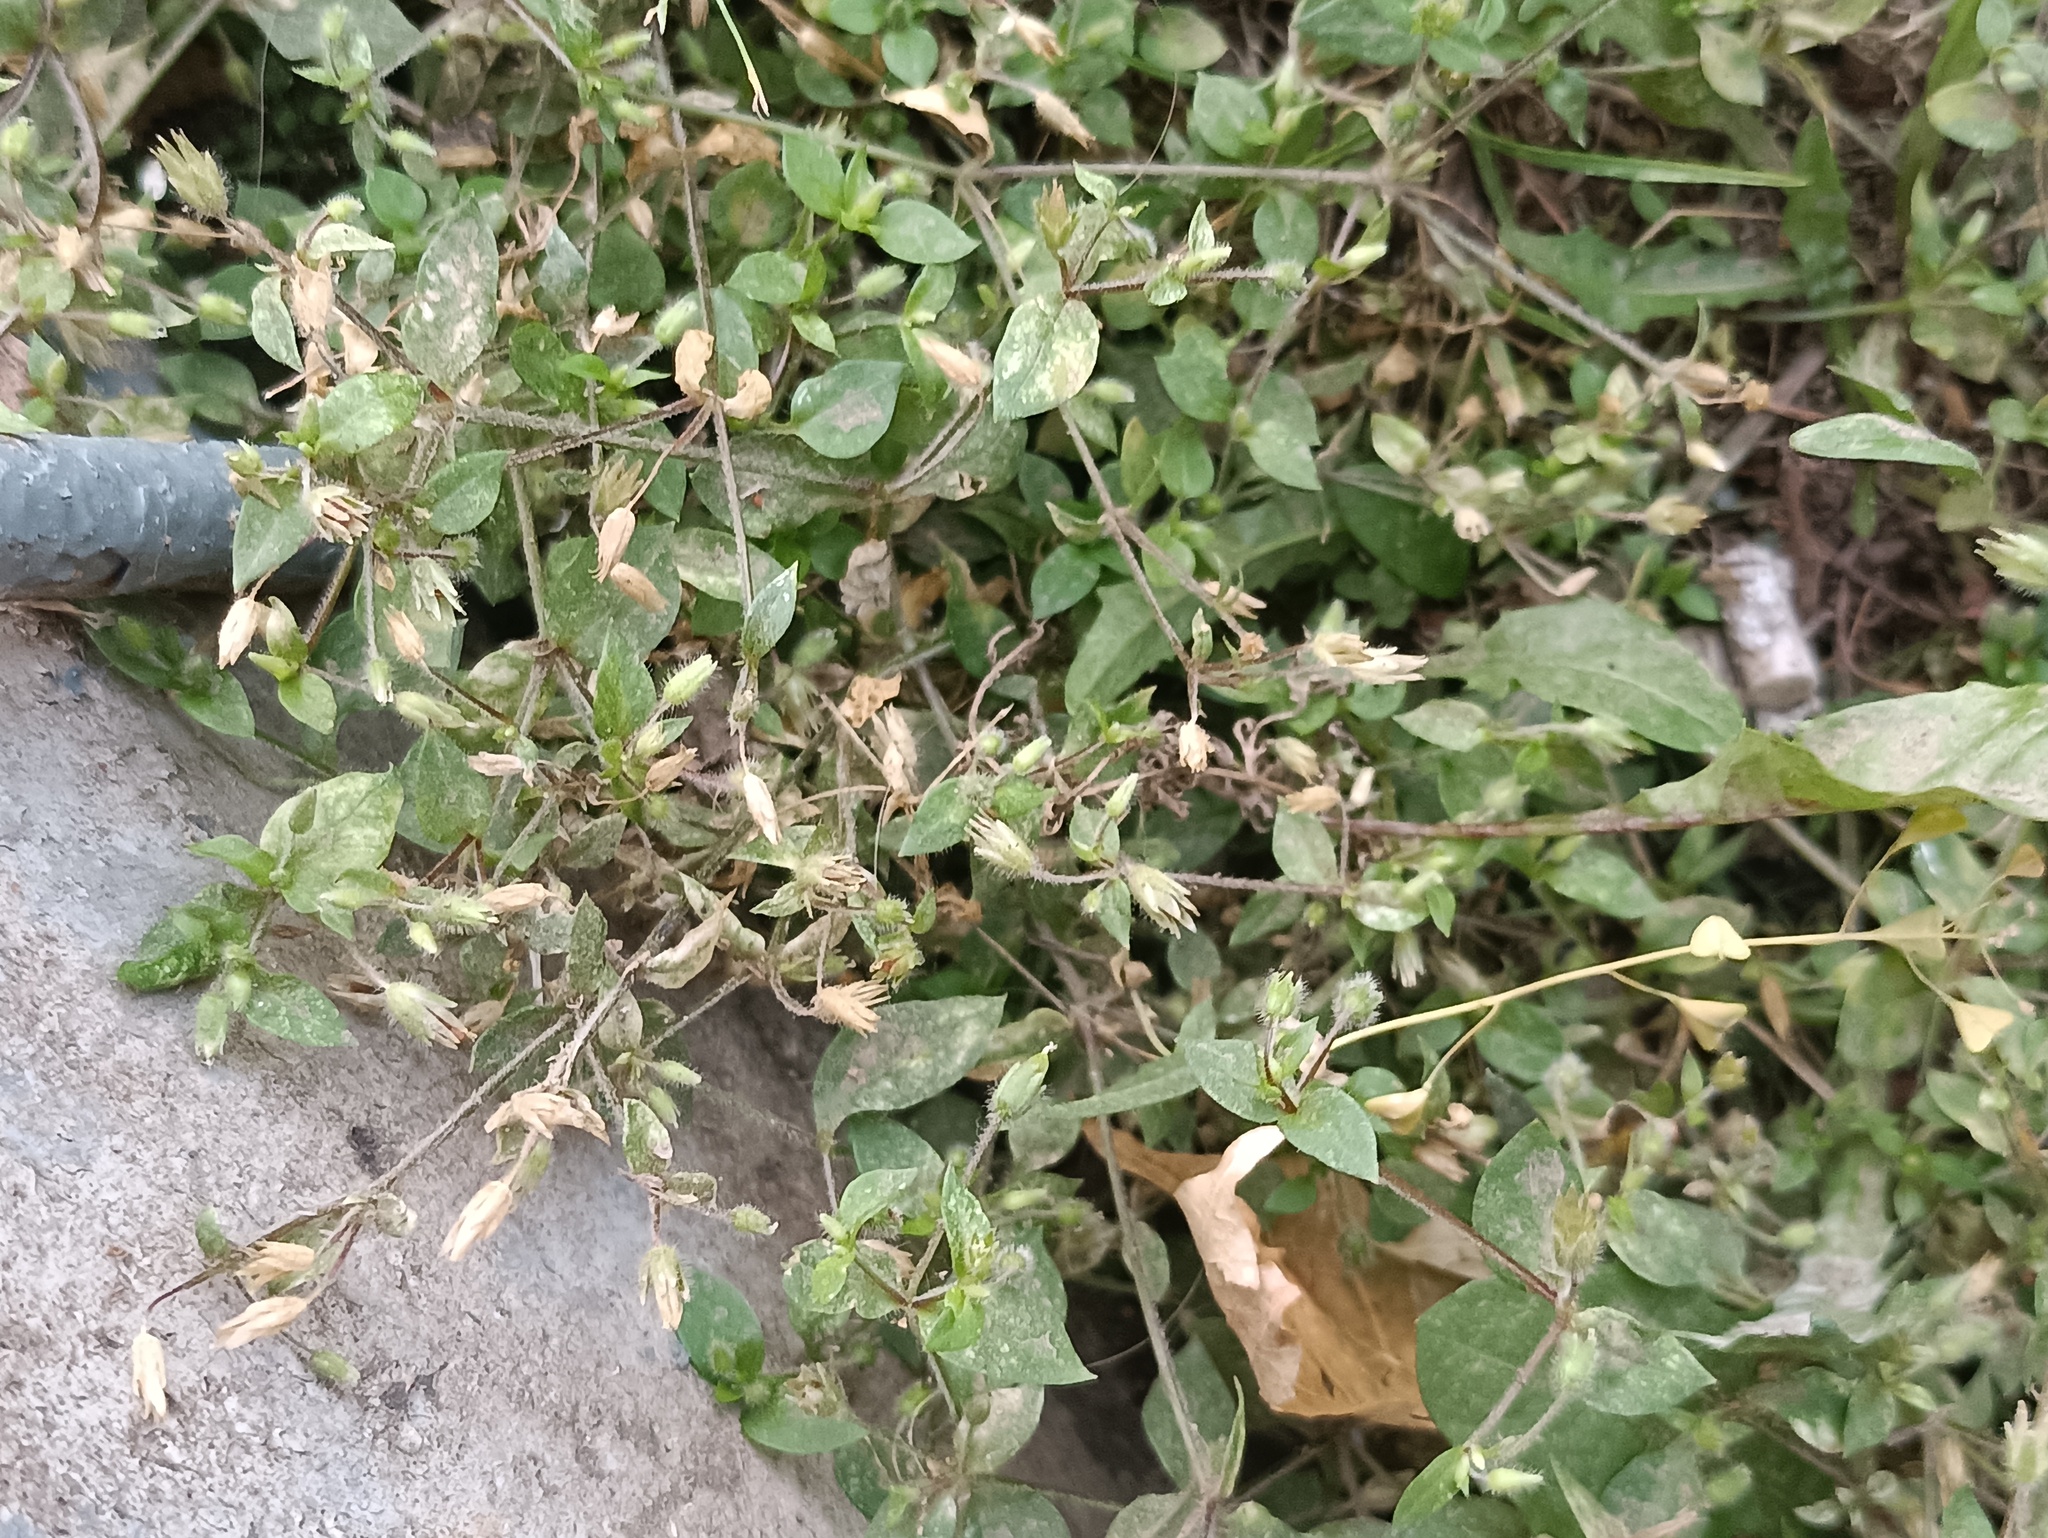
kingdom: Plantae
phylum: Tracheophyta
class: Magnoliopsida
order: Caryophyllales
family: Caryophyllaceae
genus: Stellaria
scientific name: Stellaria media
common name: Common chickweed
